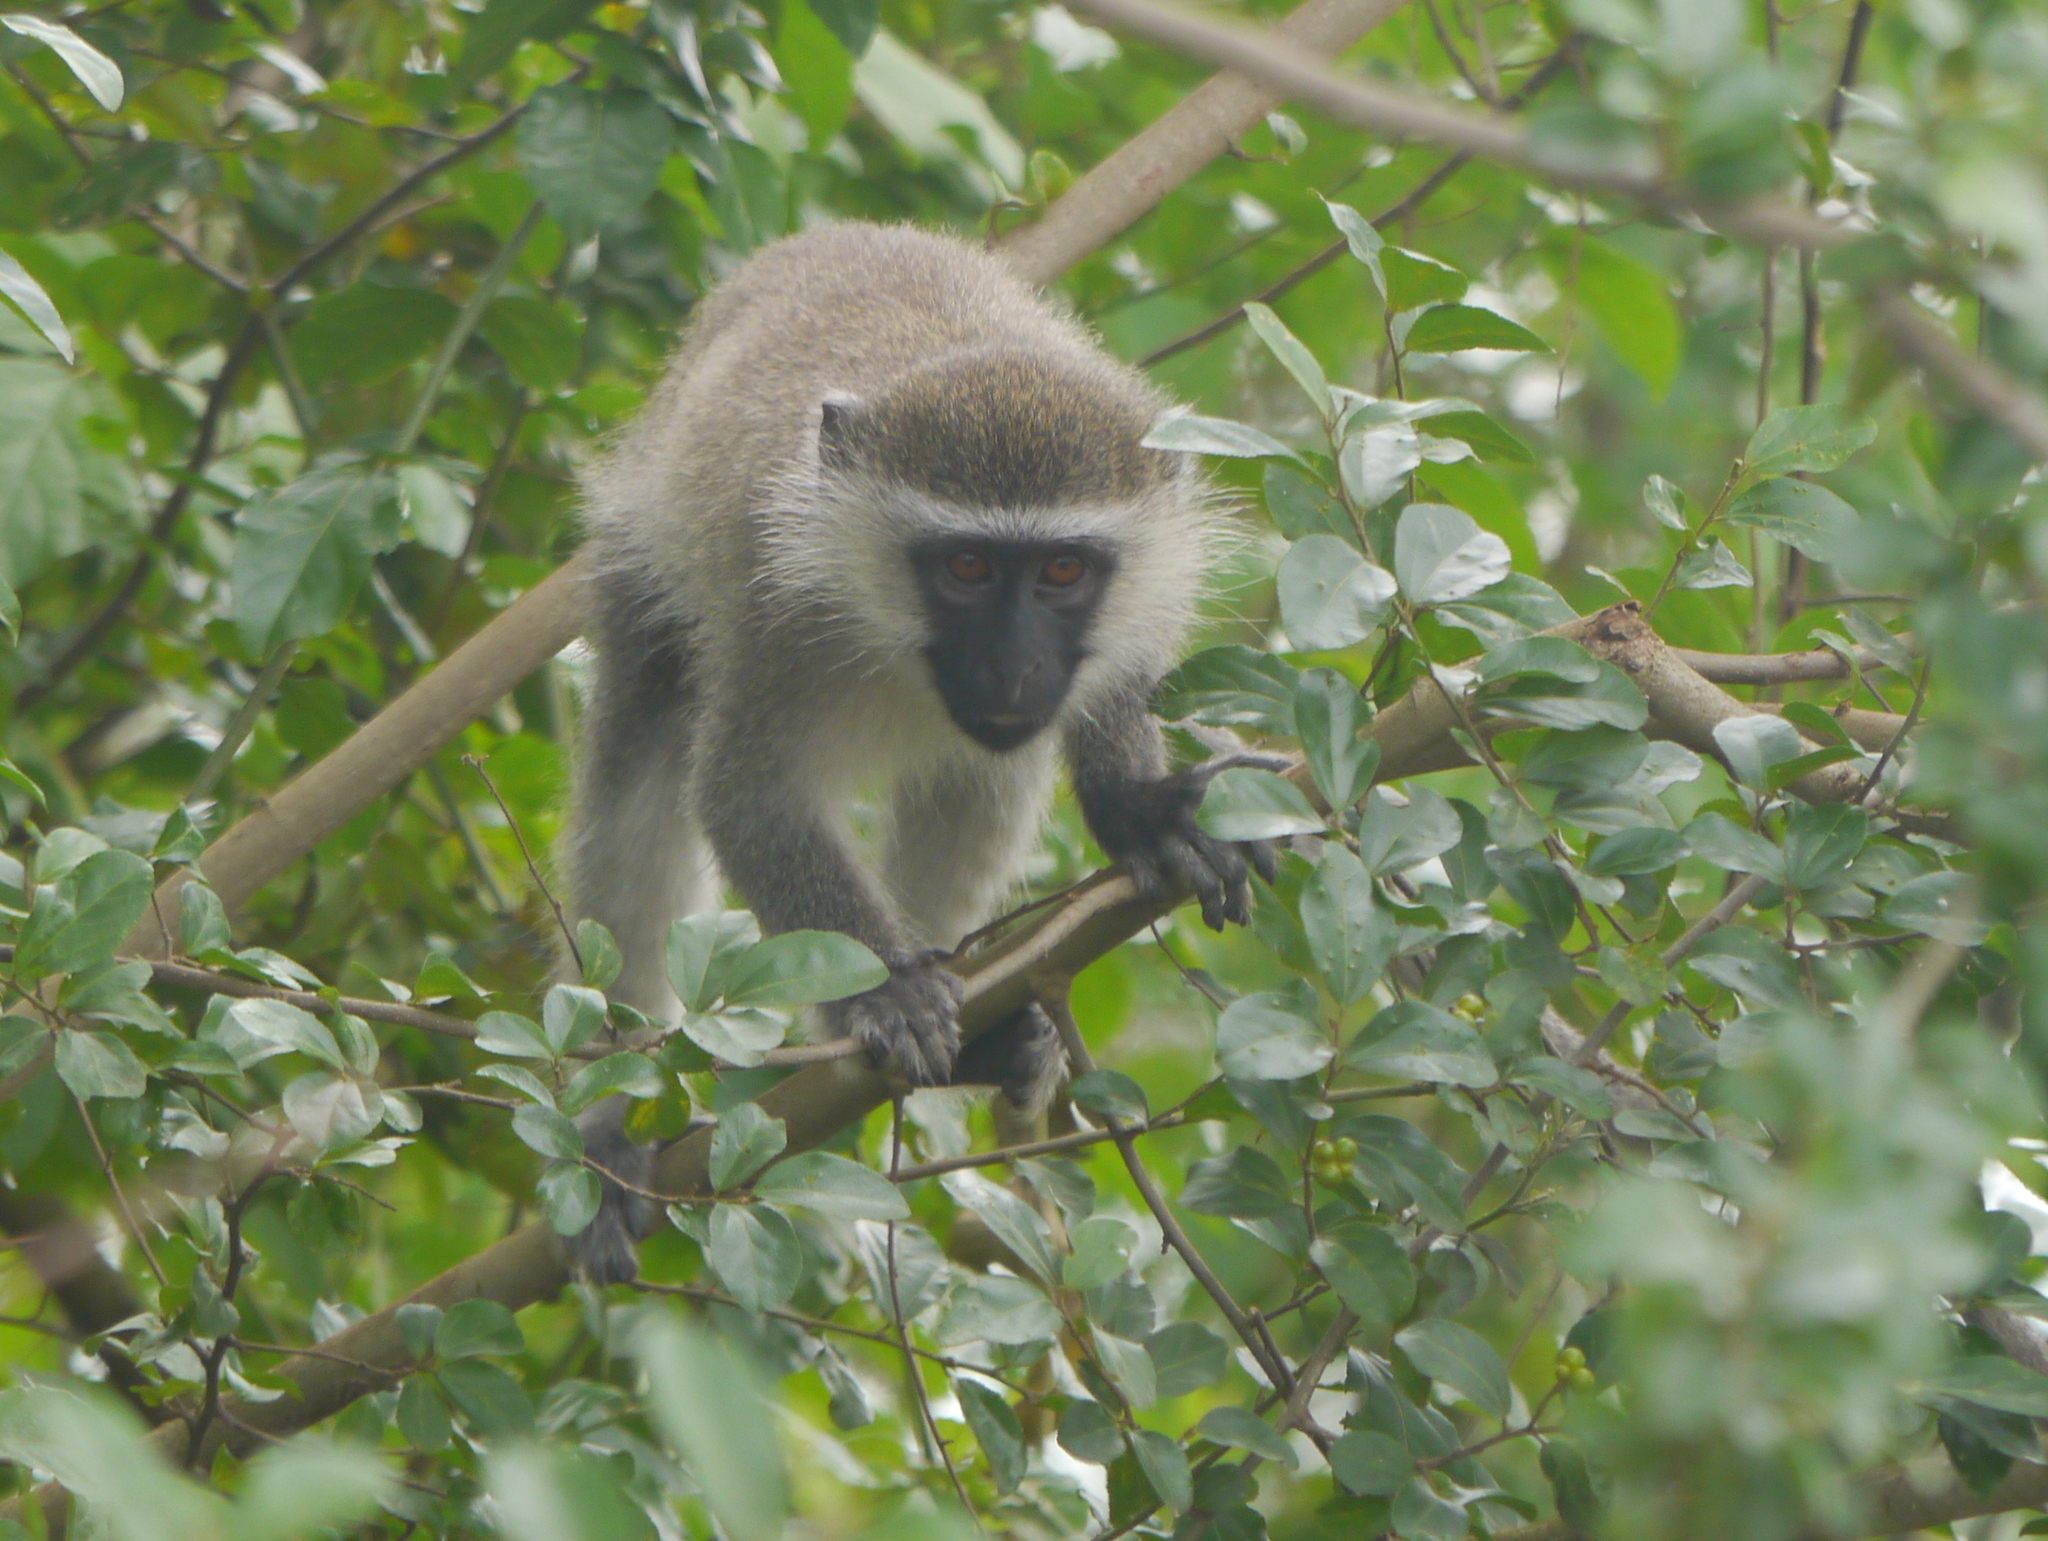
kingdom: Animalia
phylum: Chordata
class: Mammalia
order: Primates
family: Cercopithecidae
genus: Chlorocebus
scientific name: Chlorocebus tantalus
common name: Tantalus monkey
